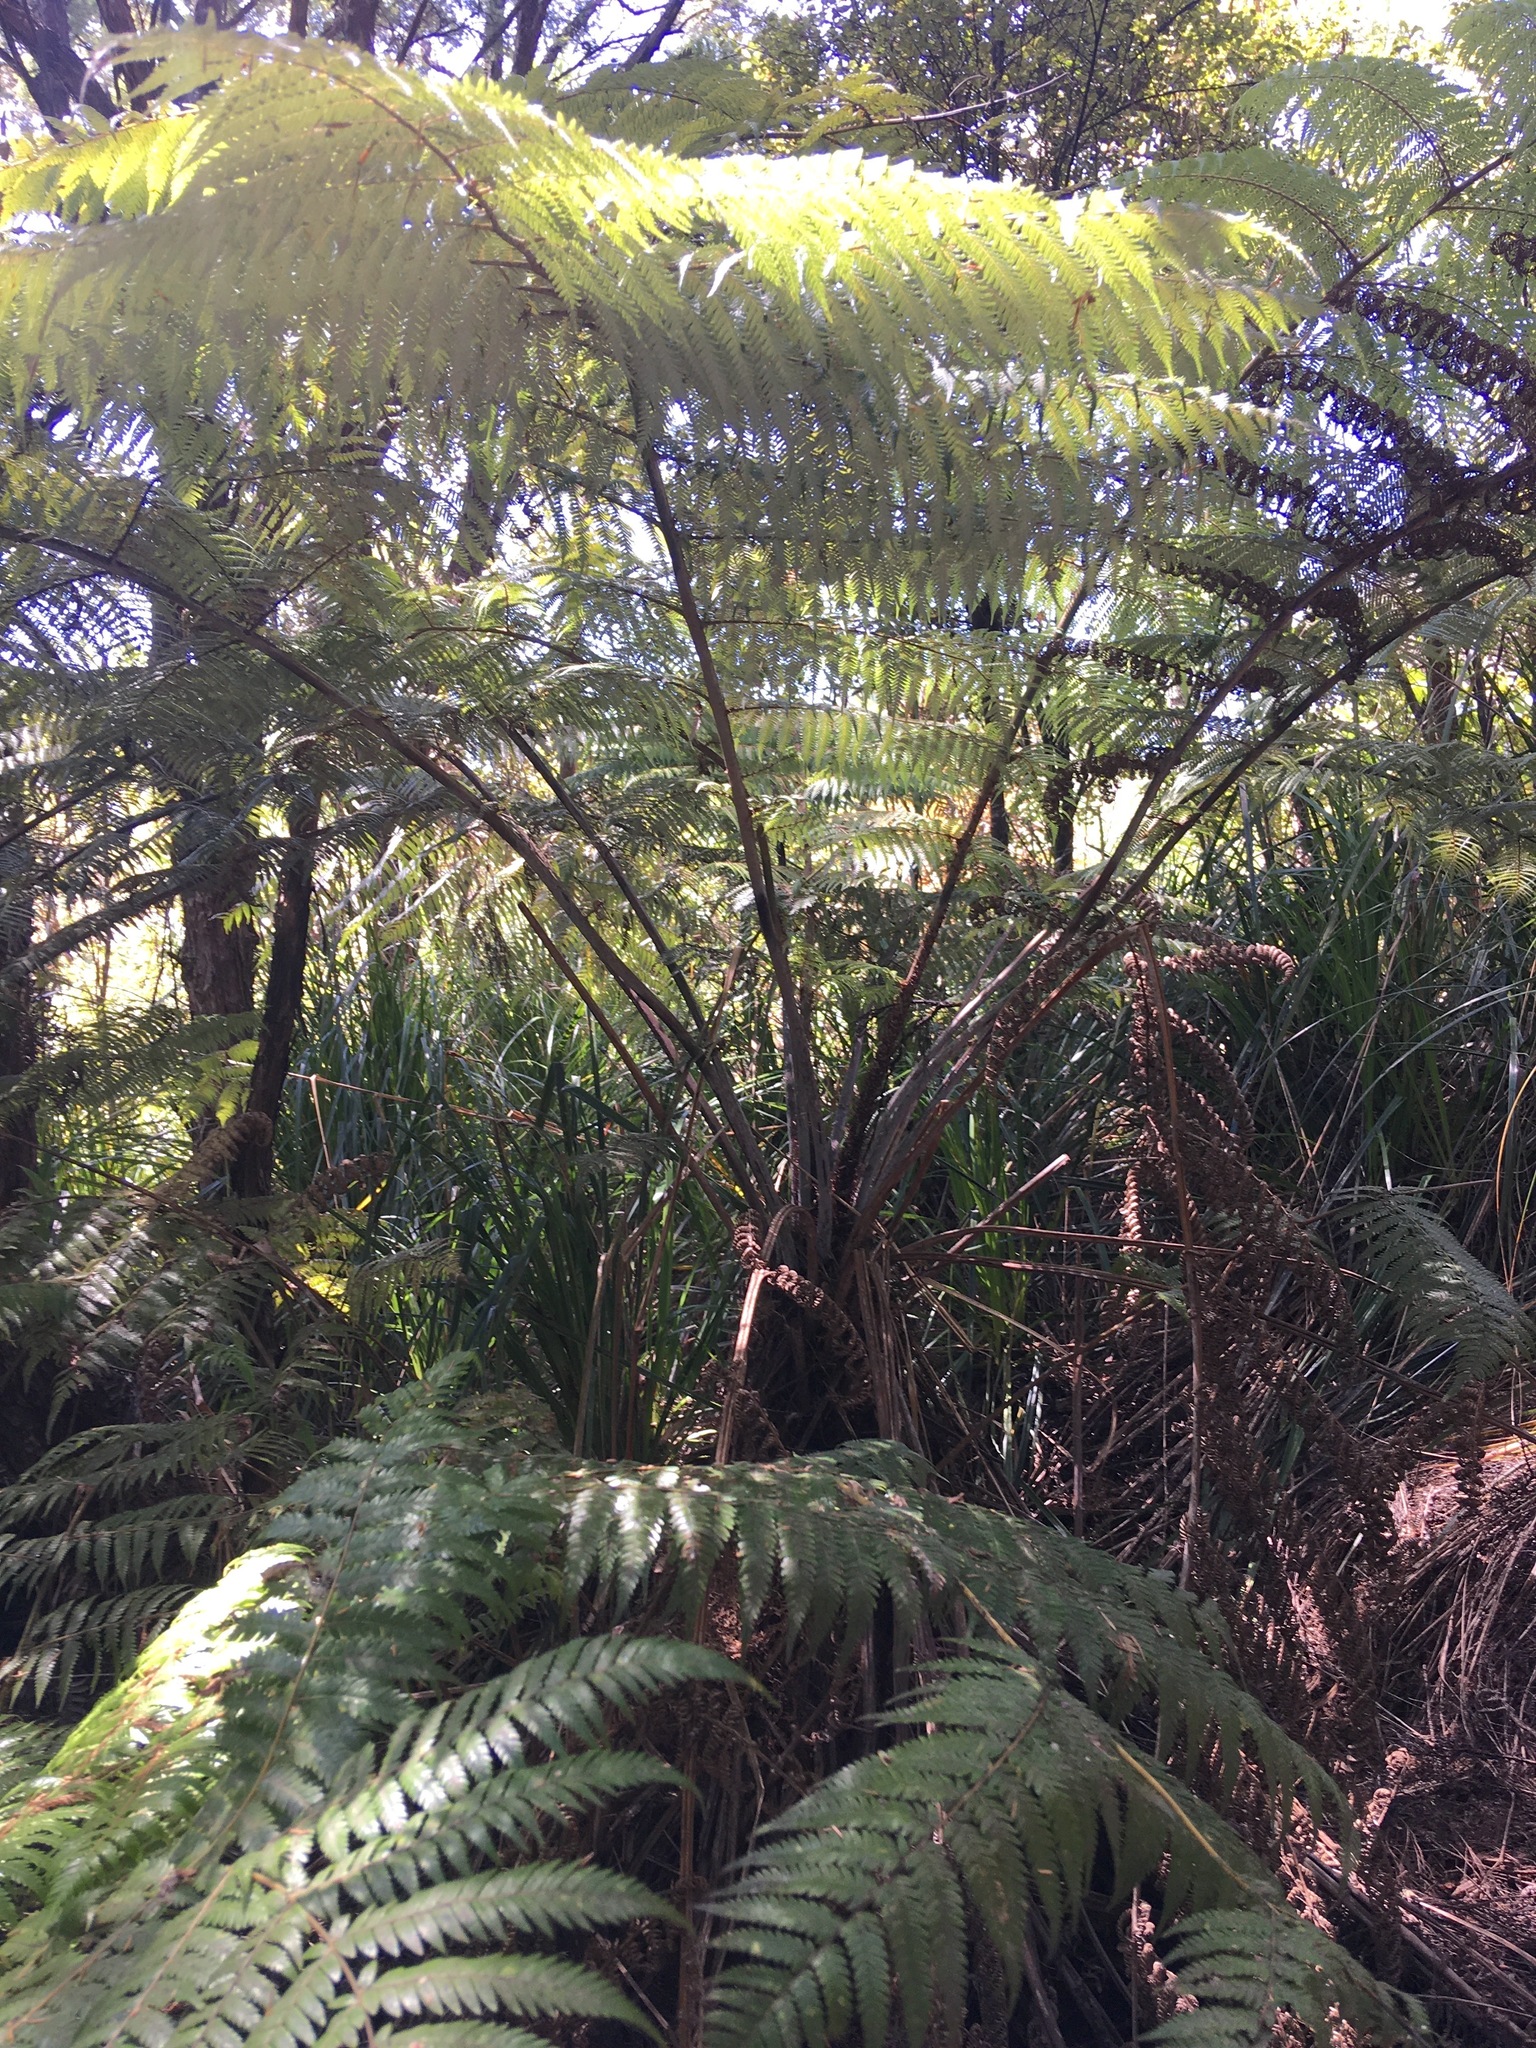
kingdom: Plantae
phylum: Tracheophyta
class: Polypodiopsida
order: Cyatheales
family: Cyatheaceae
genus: Alsophila
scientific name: Alsophila dealbata
